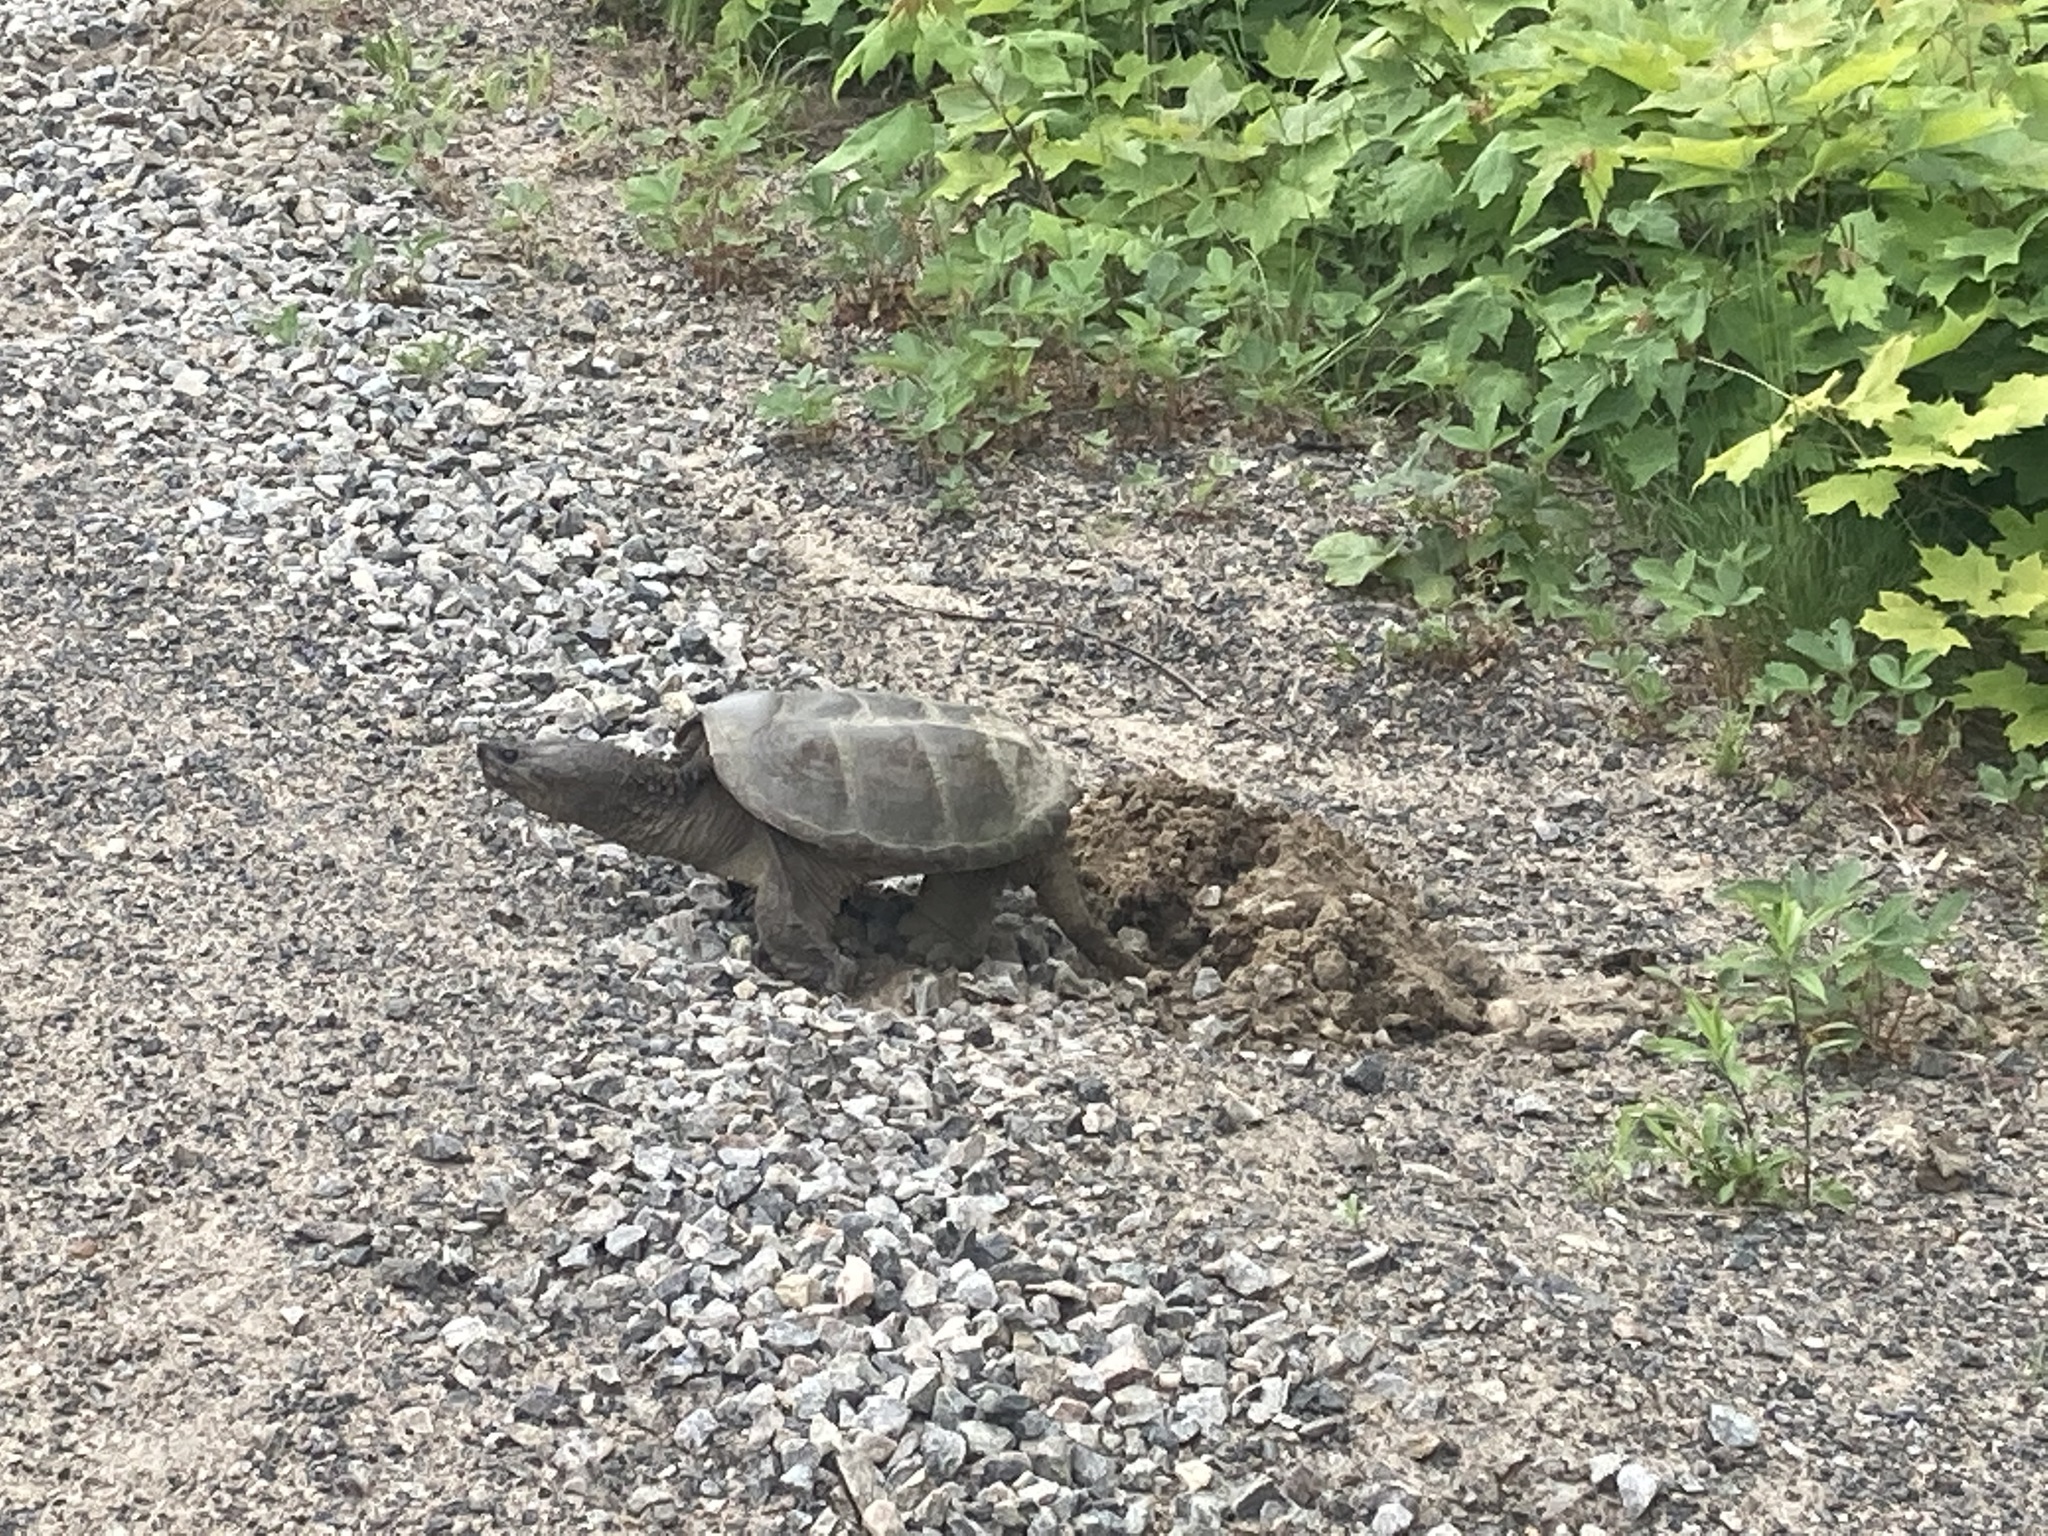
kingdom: Animalia
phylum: Chordata
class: Testudines
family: Chelydridae
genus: Chelydra
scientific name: Chelydra serpentina
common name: Common snapping turtle
